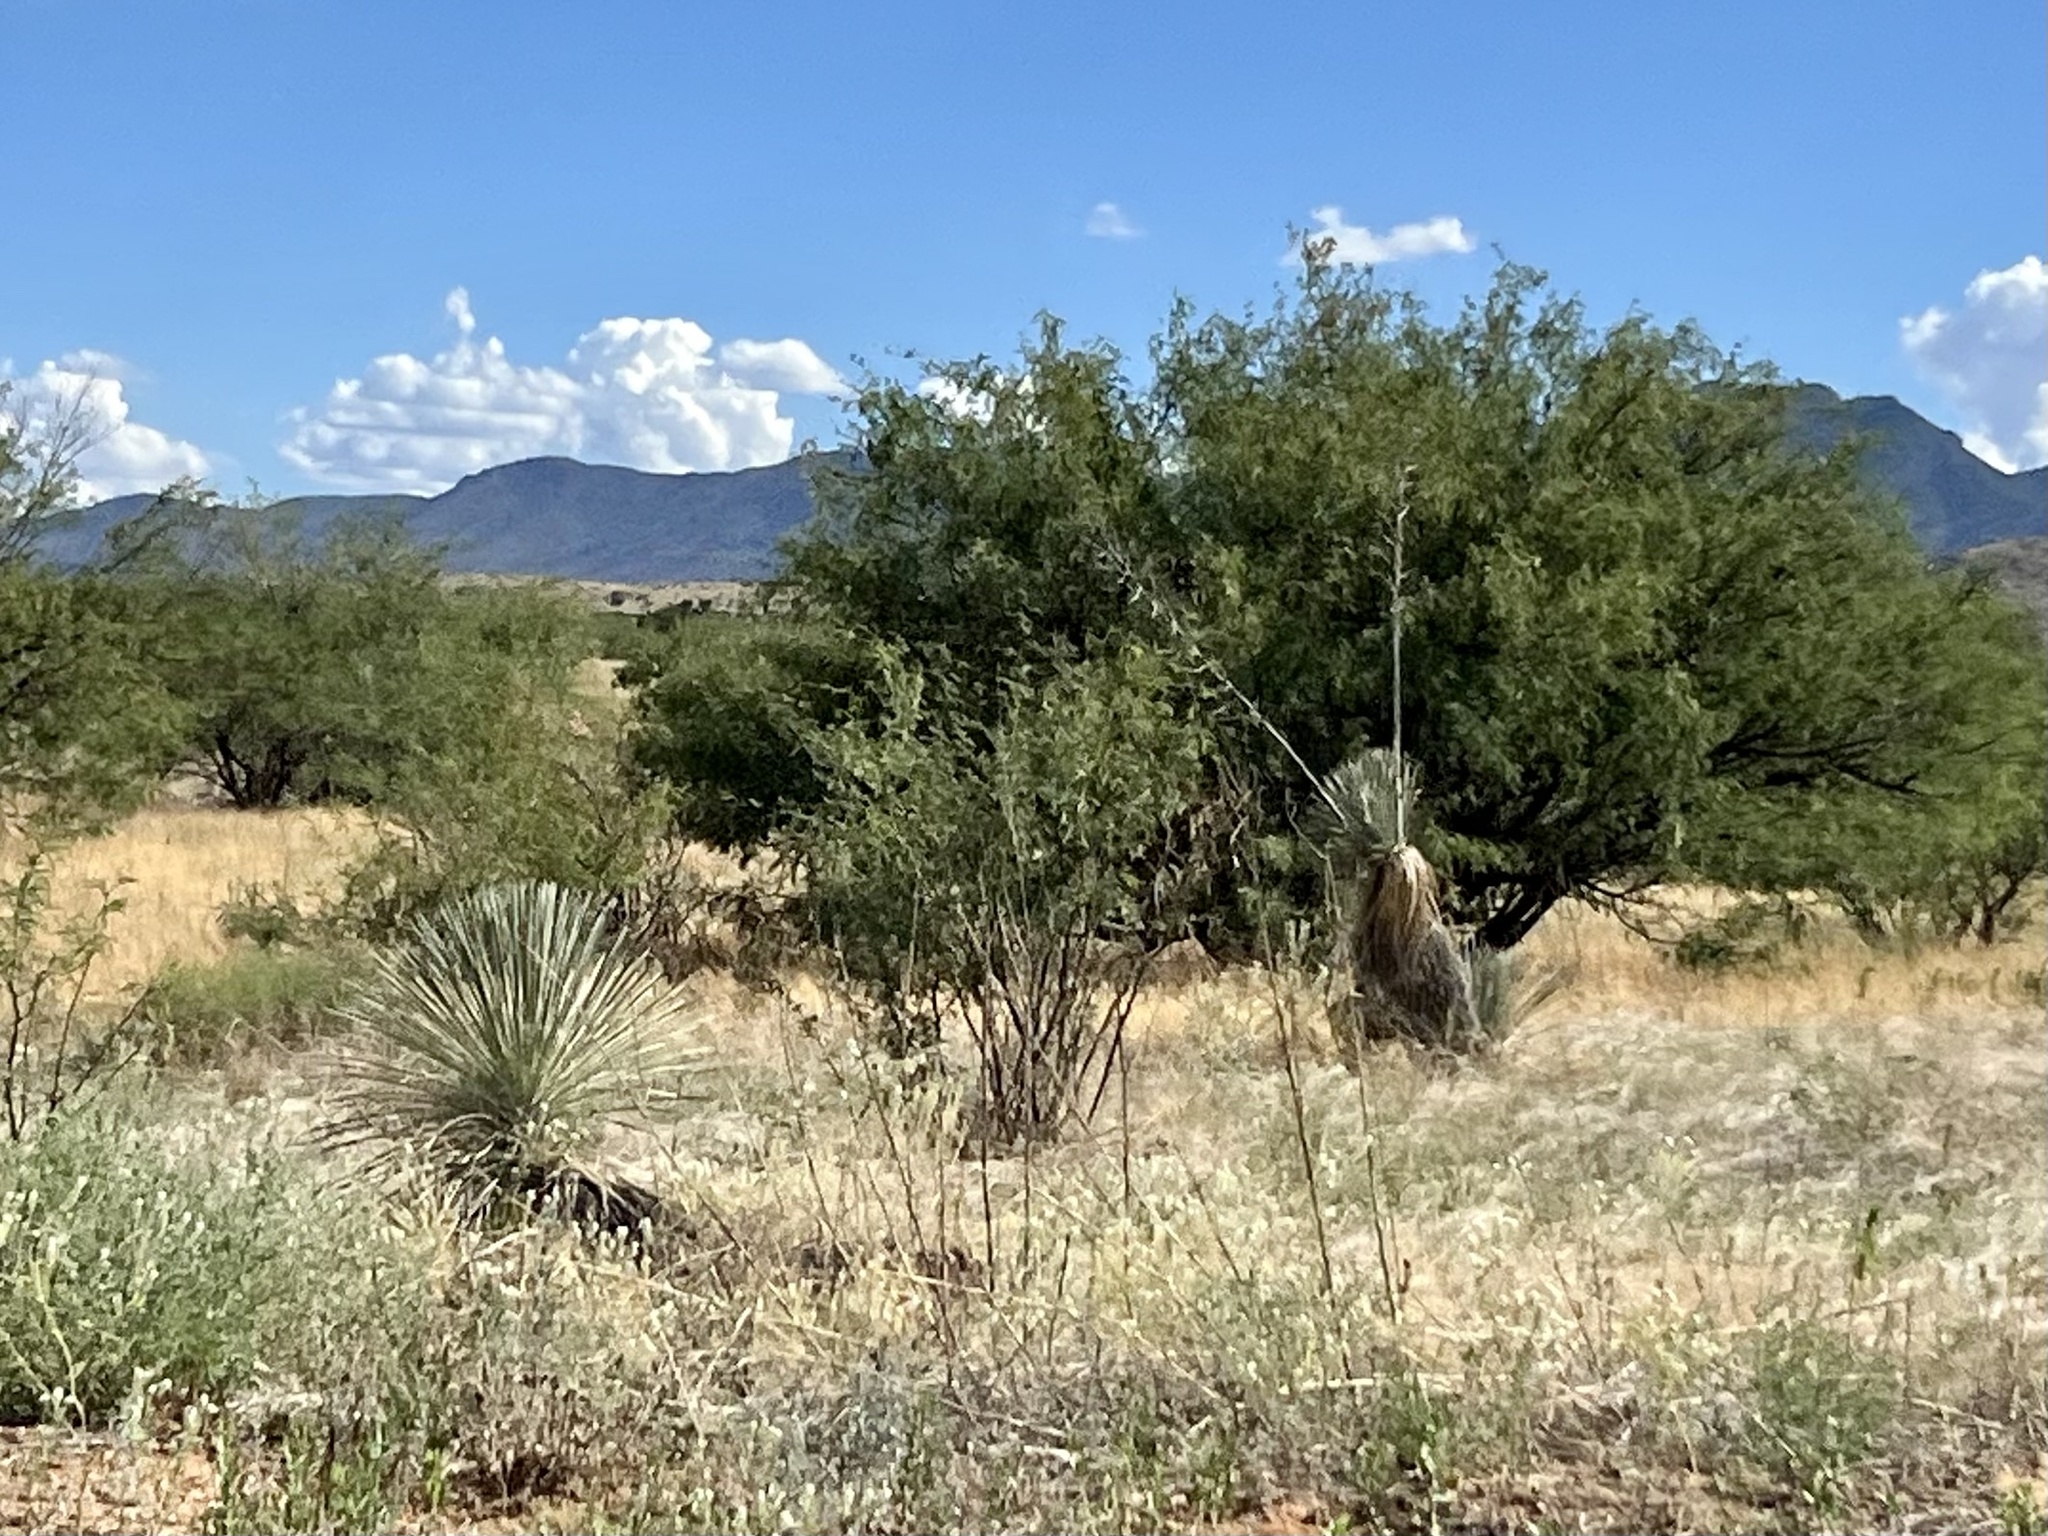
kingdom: Plantae
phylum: Tracheophyta
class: Liliopsida
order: Asparagales
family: Asparagaceae
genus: Yucca
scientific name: Yucca elata
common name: Palmella
